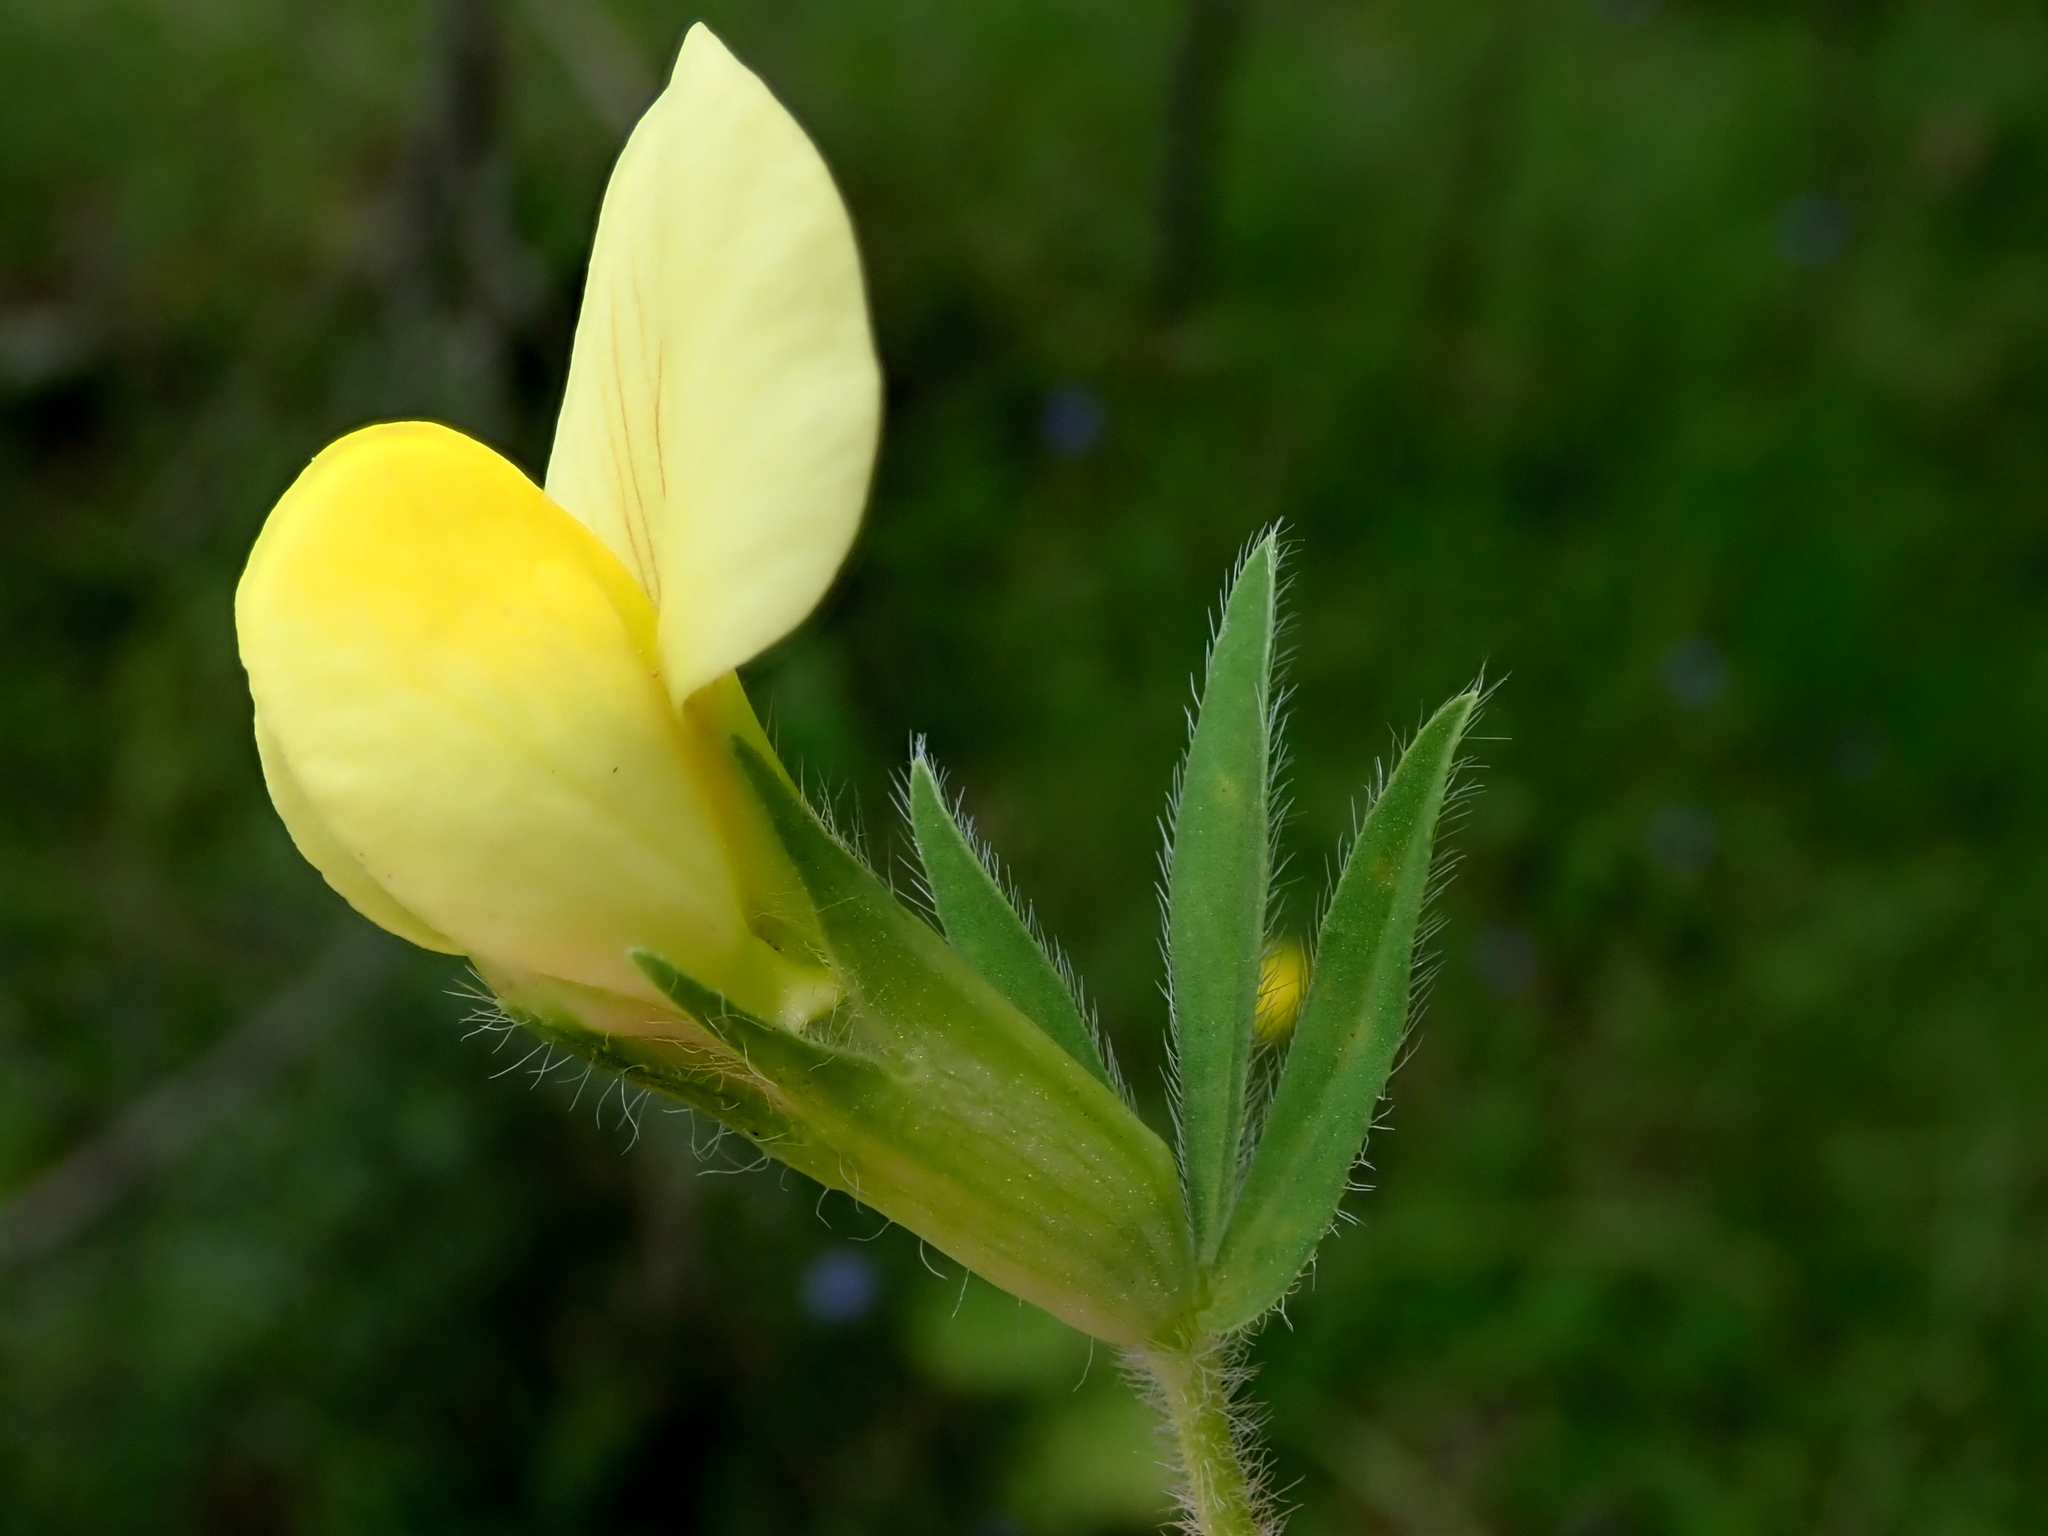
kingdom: Plantae
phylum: Tracheophyta
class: Magnoliopsida
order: Fabales
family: Fabaceae
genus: Lotus
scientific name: Lotus maritimus
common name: Dragon's-teeth
